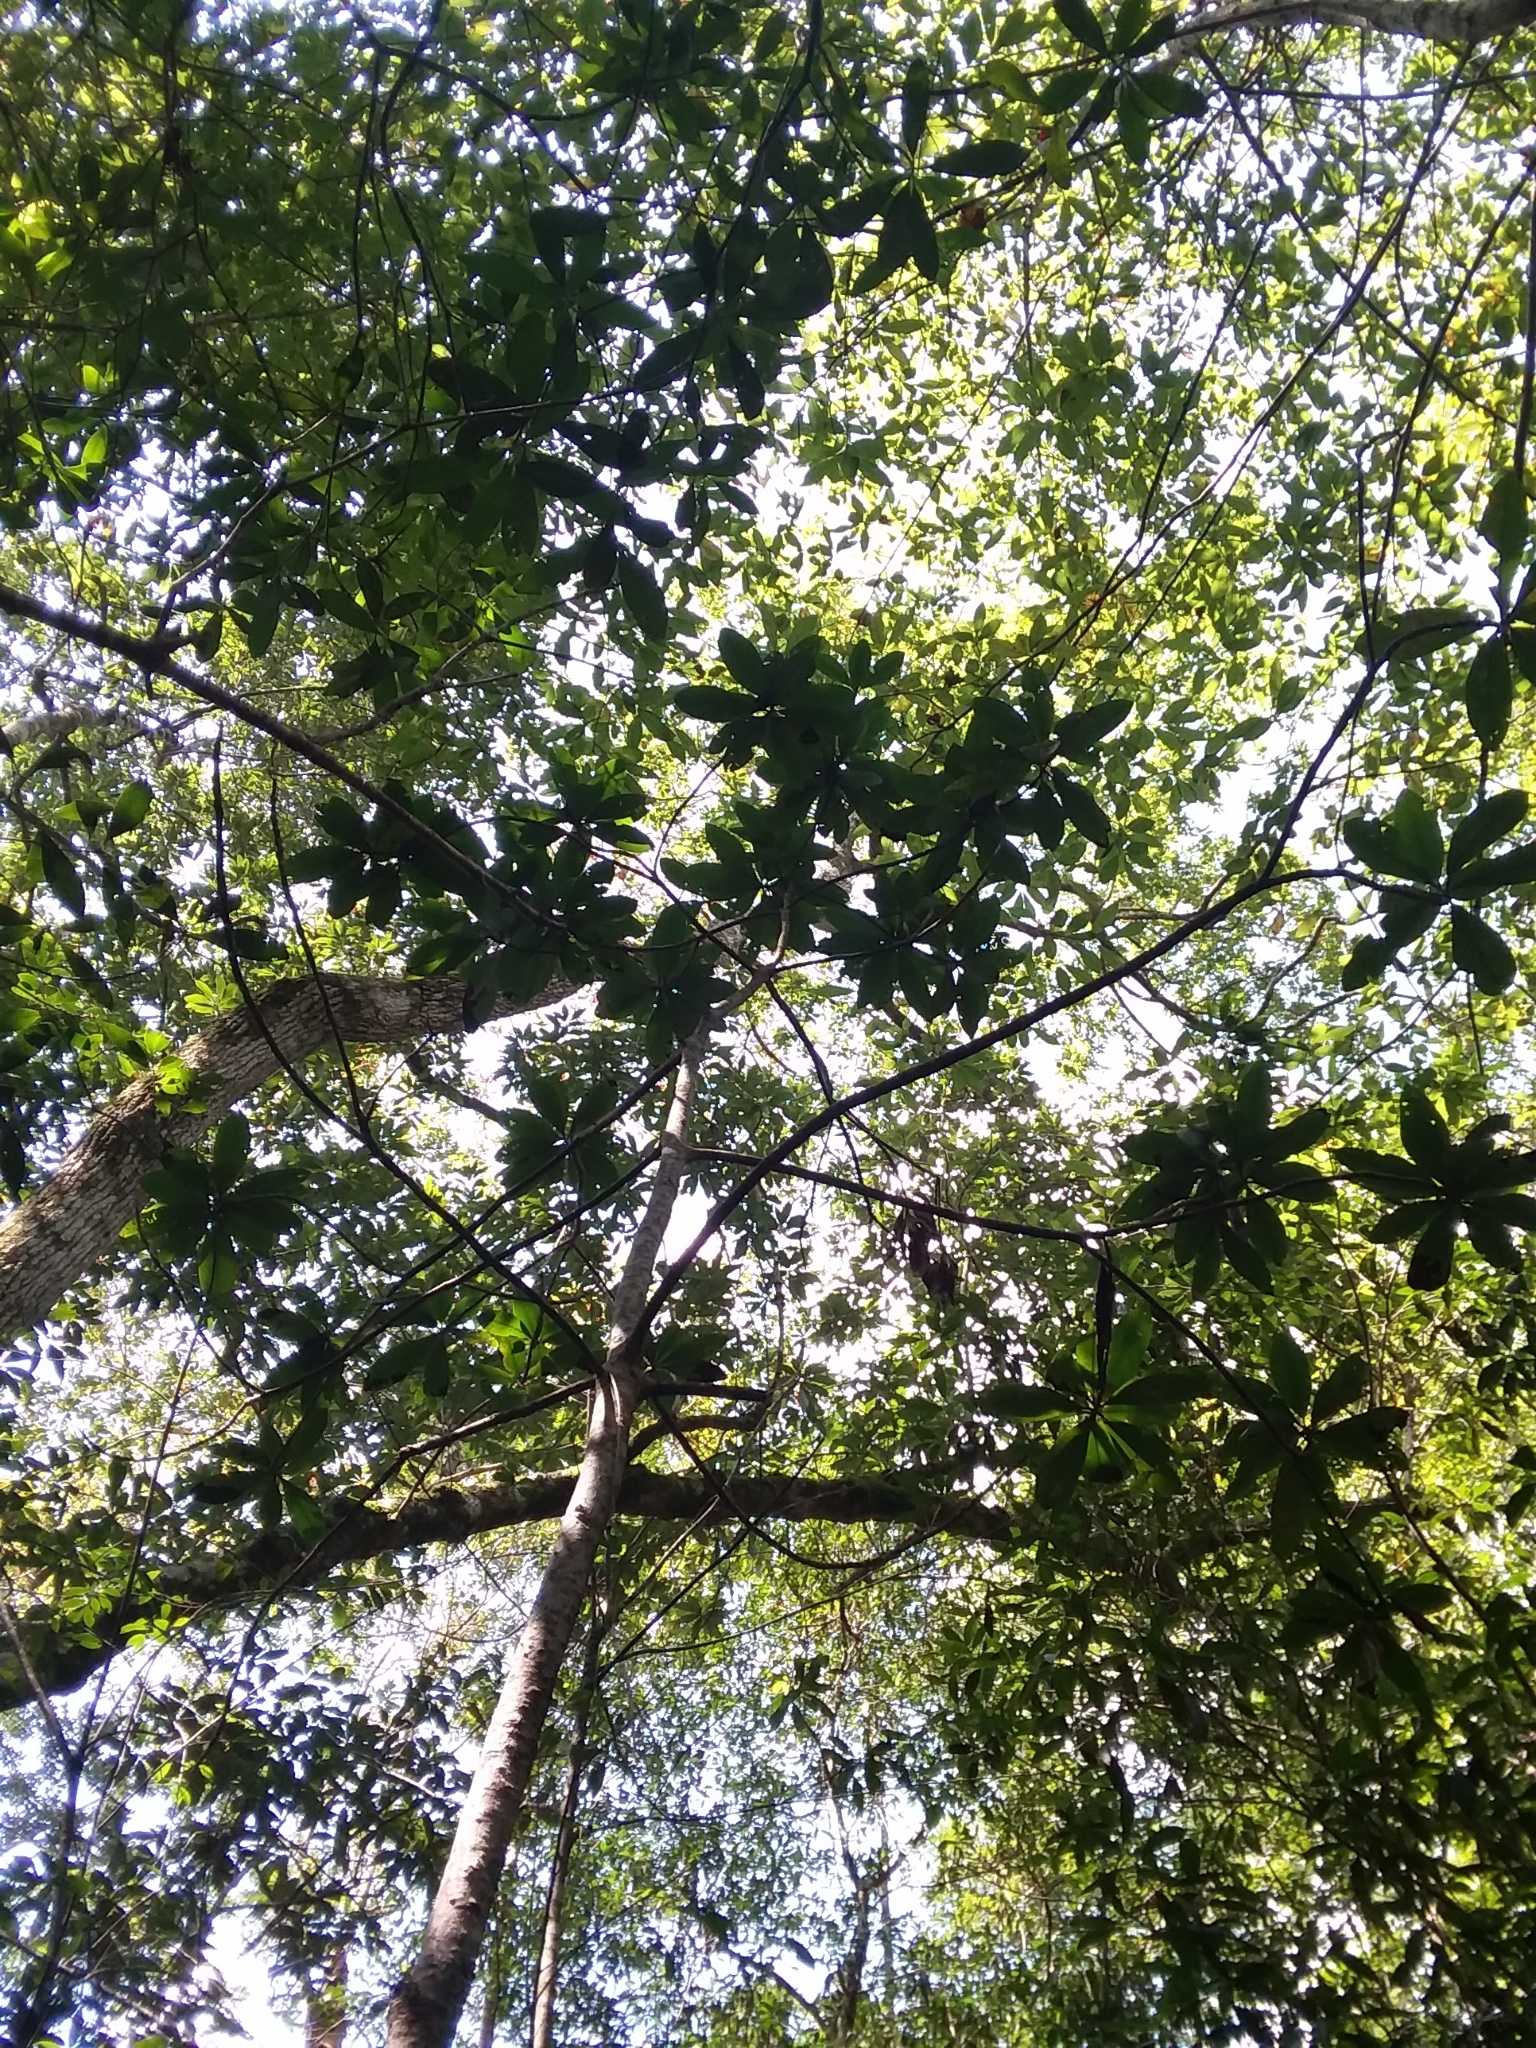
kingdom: Plantae
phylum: Tracheophyta
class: Magnoliopsida
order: Ericales
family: Theaceae
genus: Gordonia
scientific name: Gordonia lasianthus
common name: Loblolly bay
